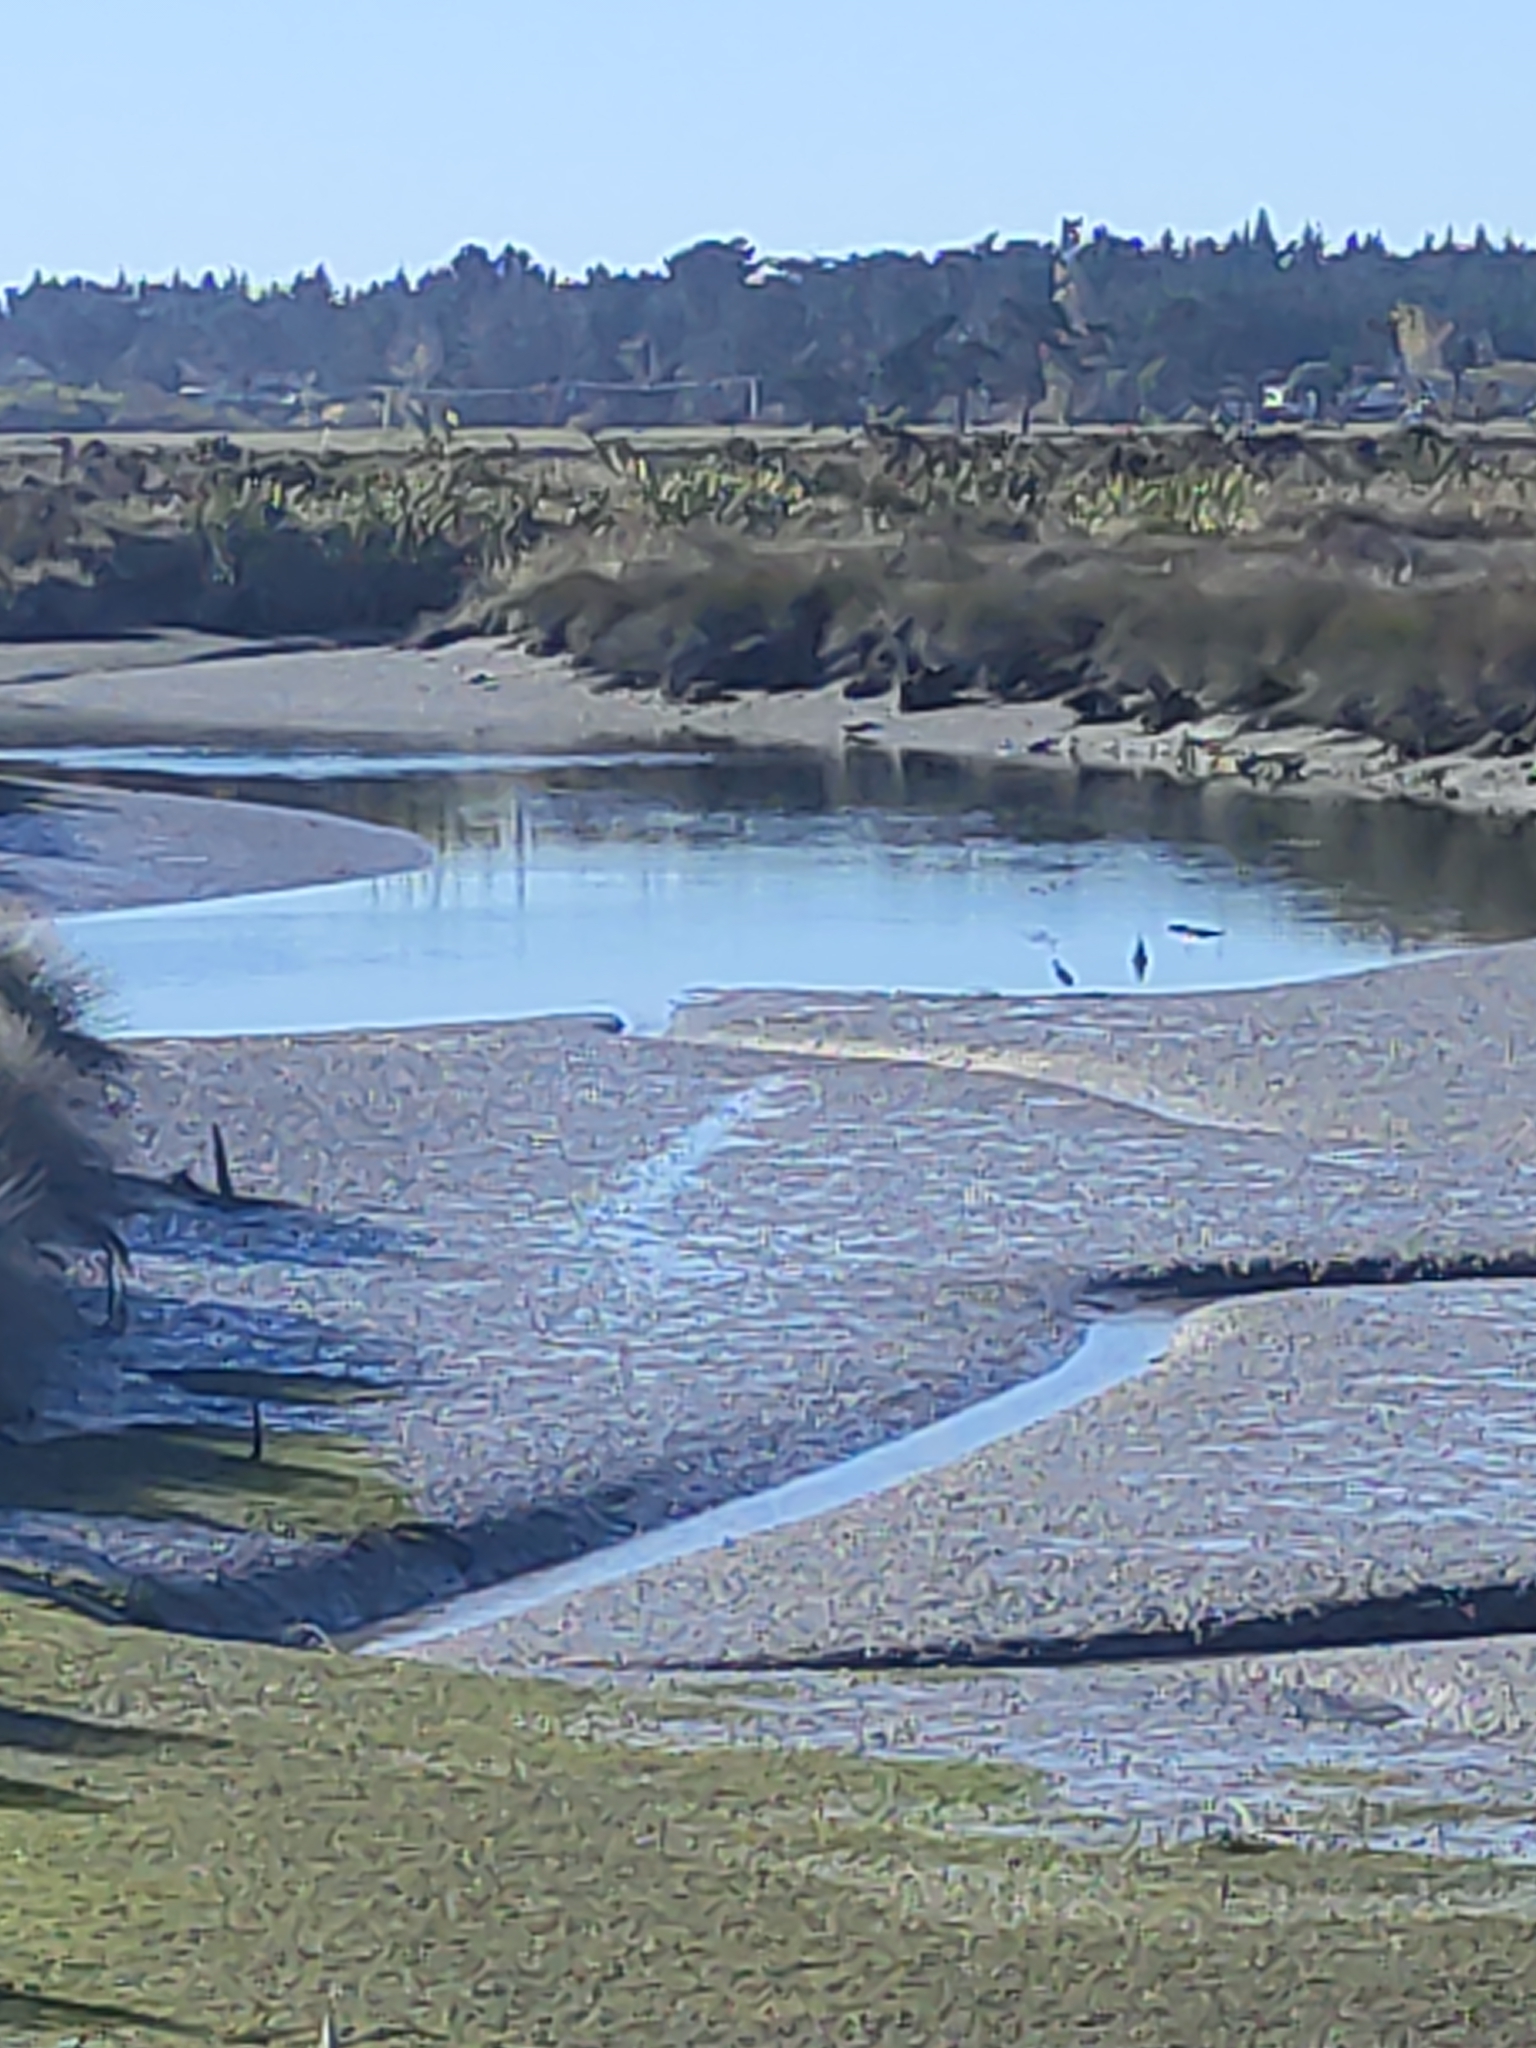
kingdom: Animalia
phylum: Chordata
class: Aves
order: Pelecaniformes
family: Ardeidae
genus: Egretta
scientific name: Egretta novaehollandiae
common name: White-faced heron
